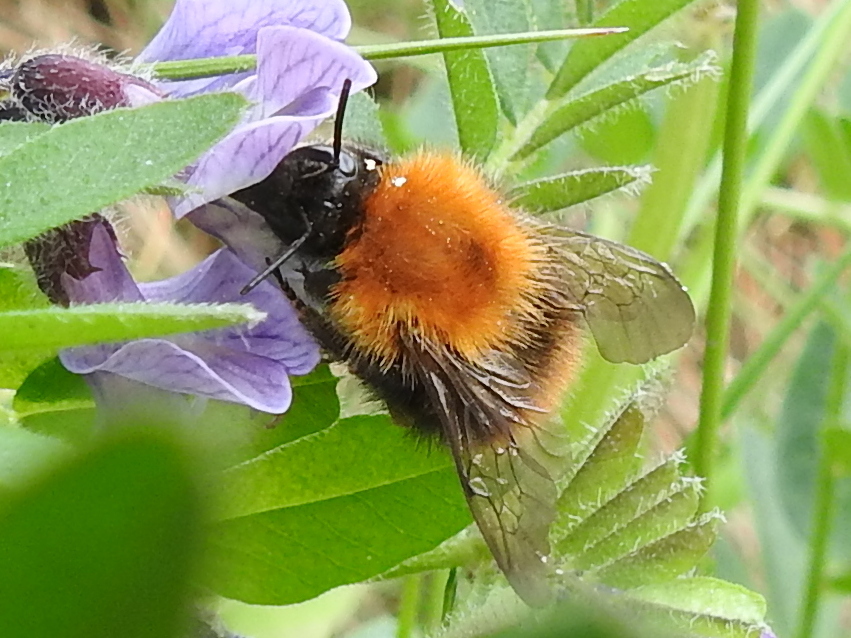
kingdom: Animalia
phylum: Arthropoda
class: Insecta
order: Hymenoptera
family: Apidae
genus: Bombus
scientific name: Bombus pascuorum
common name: Common carder bee
